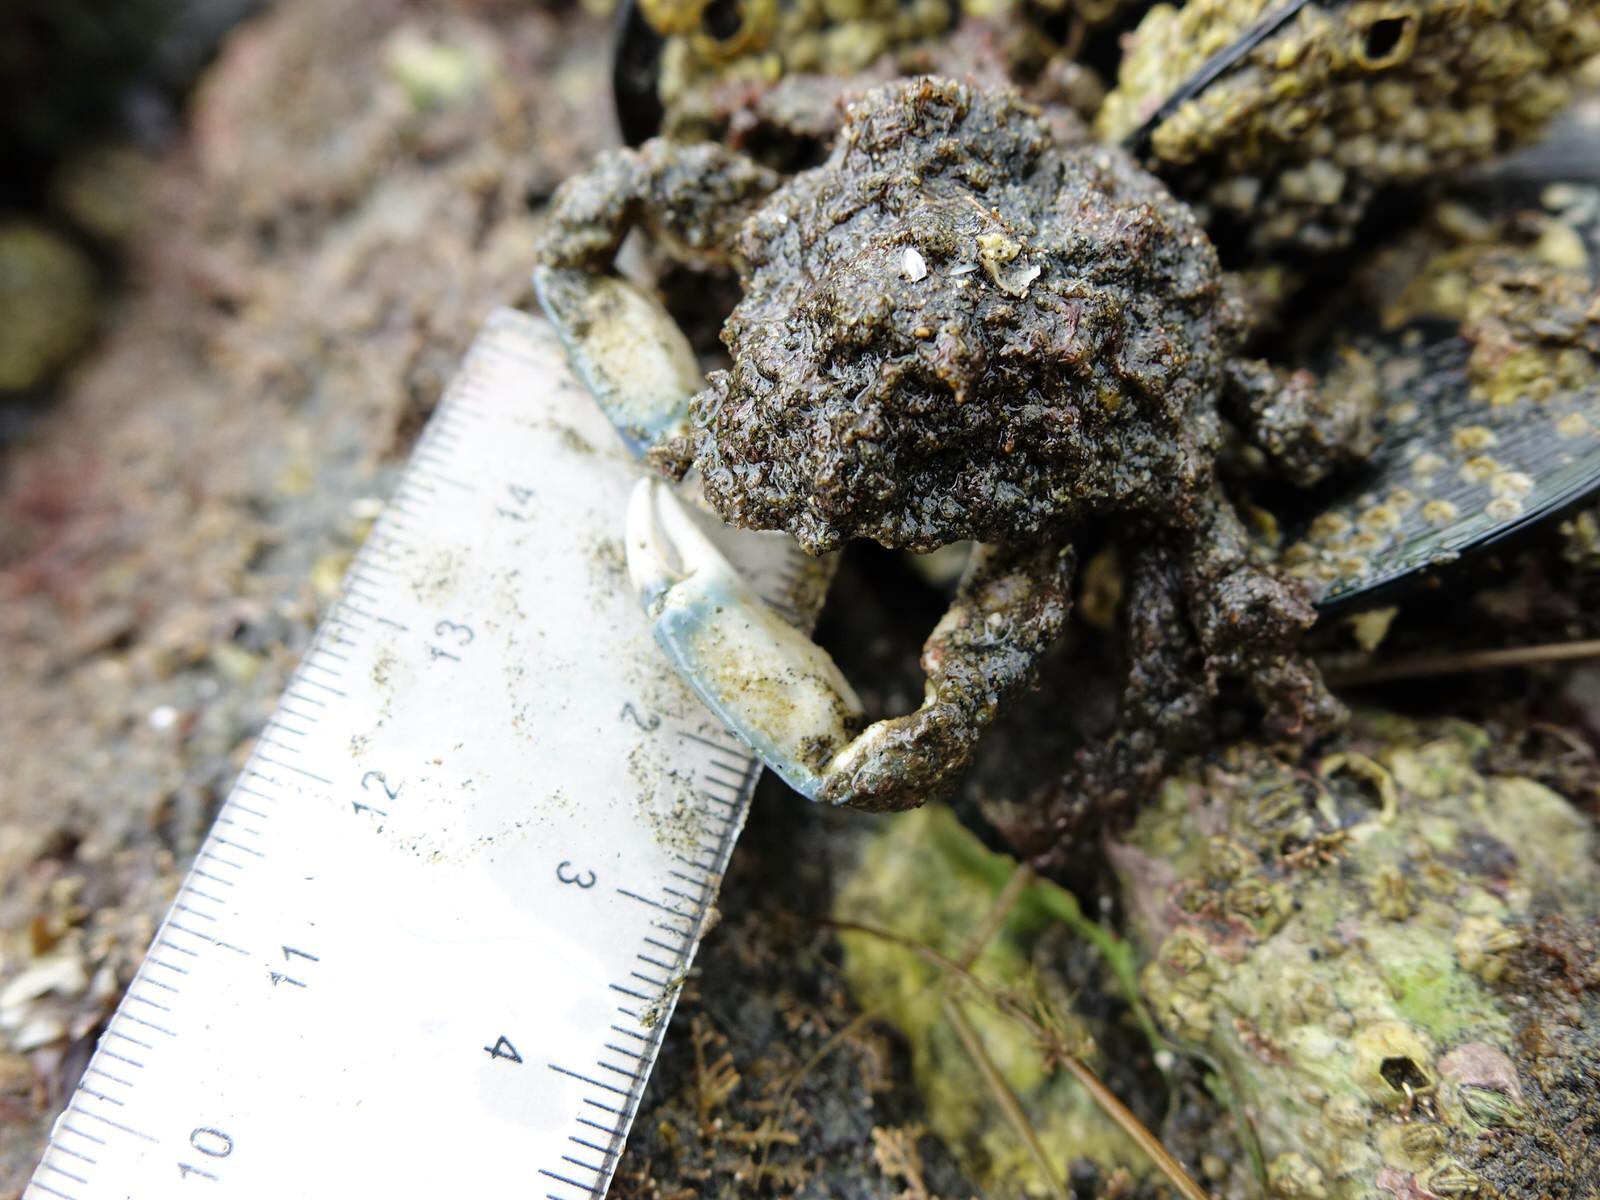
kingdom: Animalia
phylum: Arthropoda
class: Malacostraca
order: Decapoda
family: Majidae
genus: Notomithrax
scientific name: Notomithrax minor
